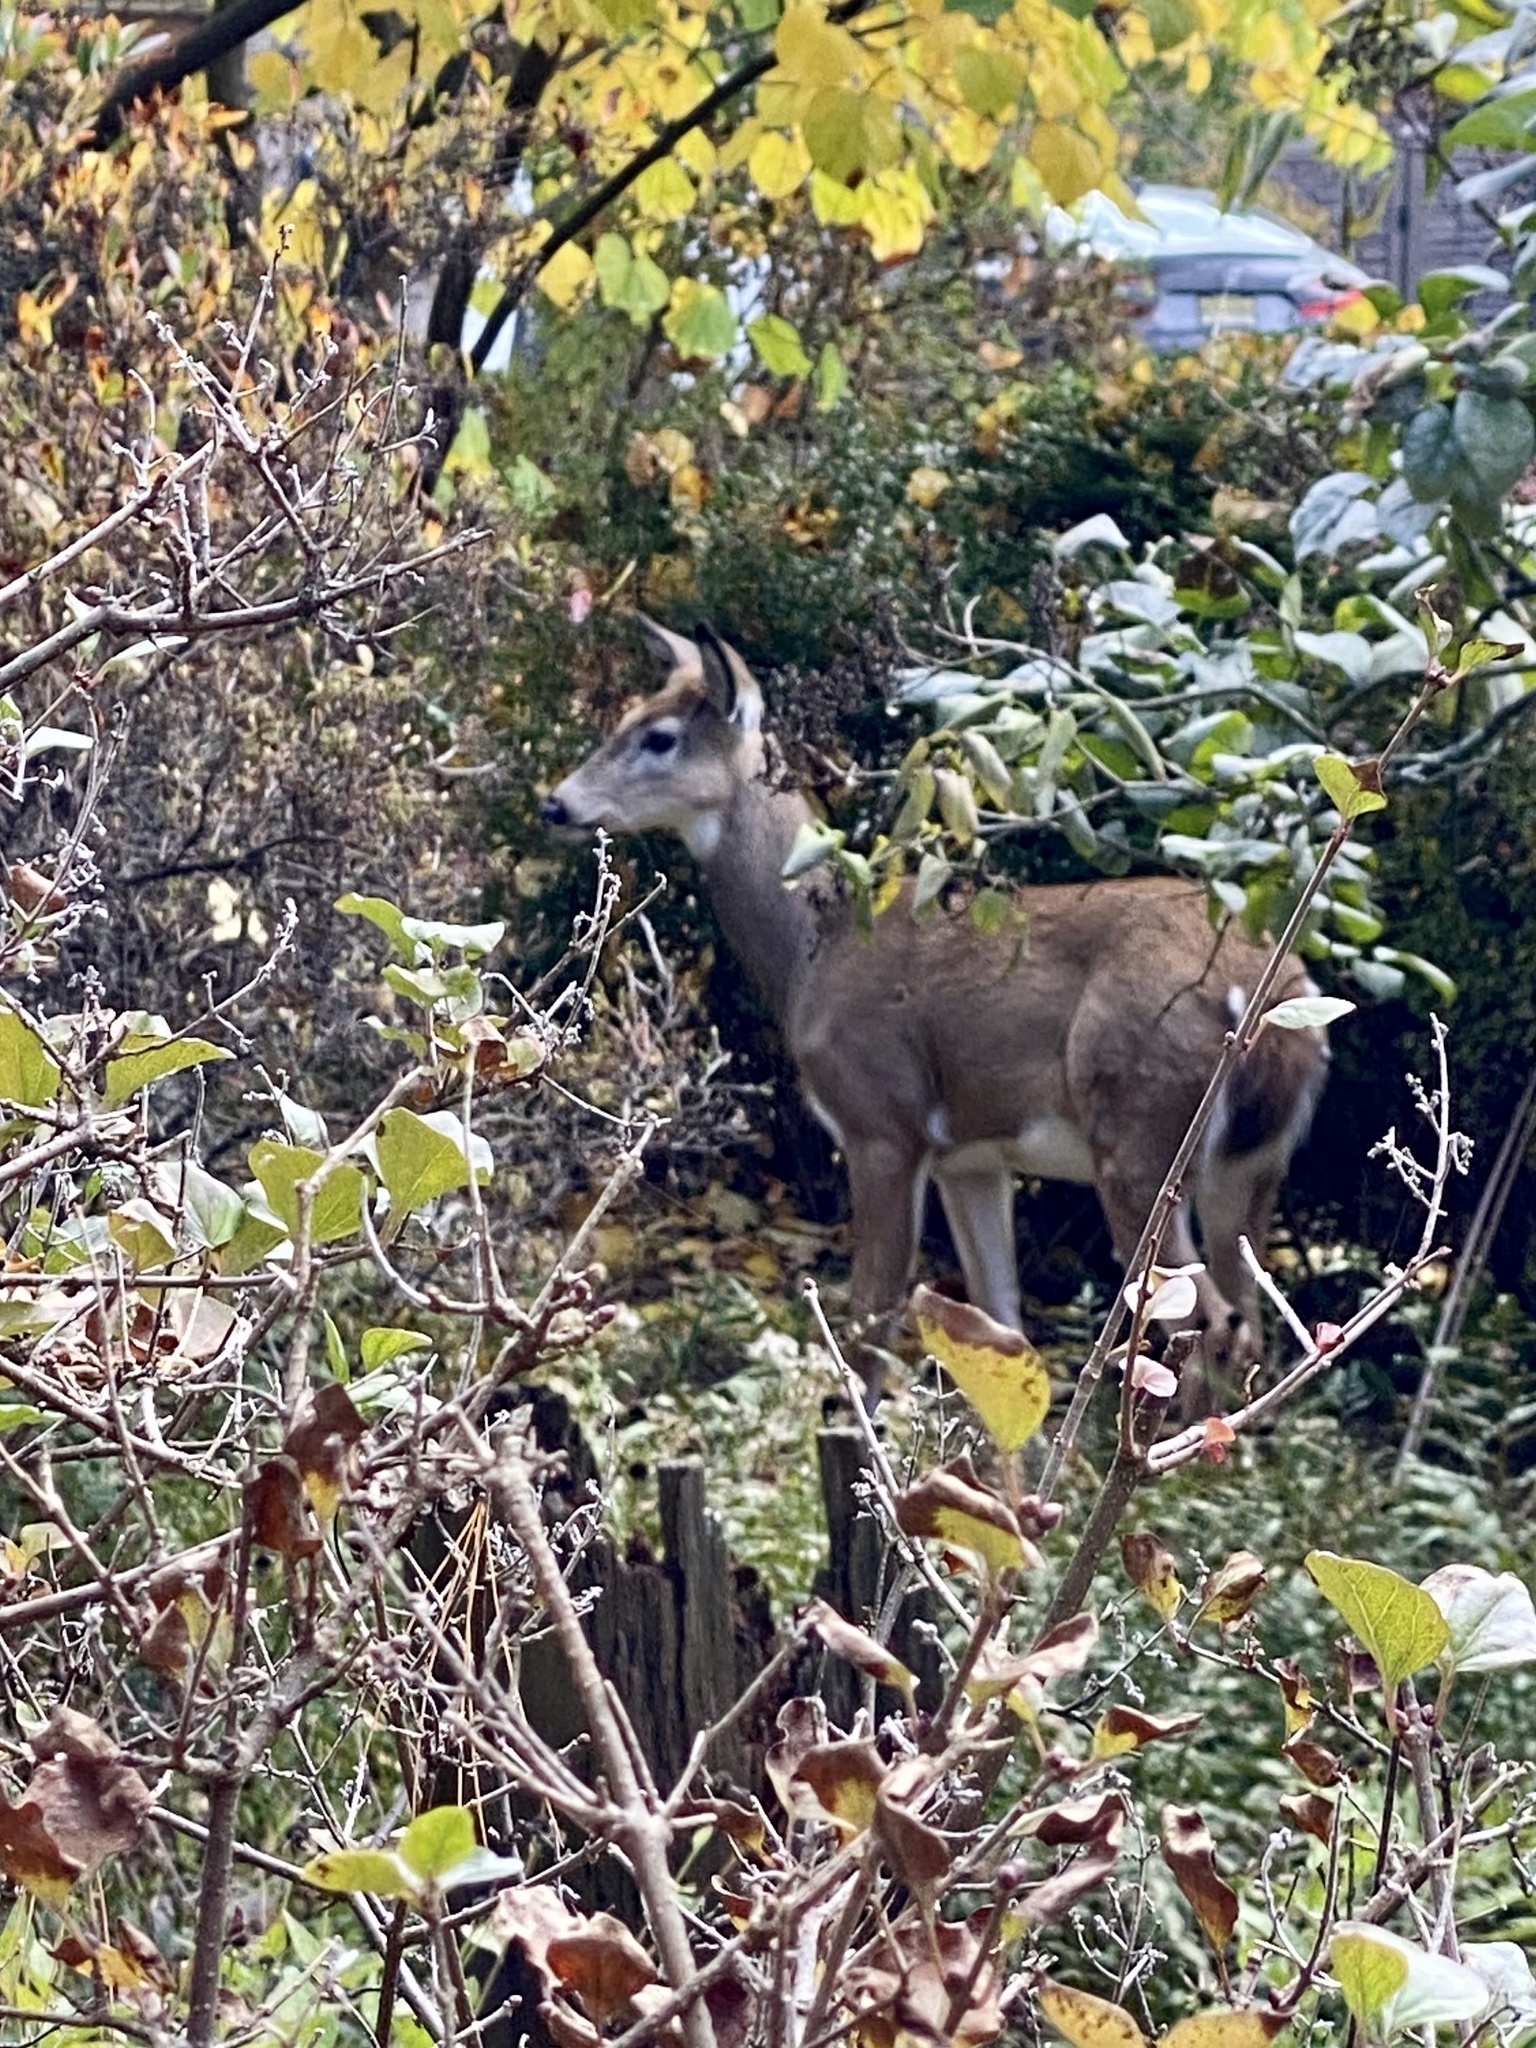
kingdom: Animalia
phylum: Chordata
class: Mammalia
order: Artiodactyla
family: Cervidae
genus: Odocoileus
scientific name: Odocoileus virginianus
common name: White-tailed deer
